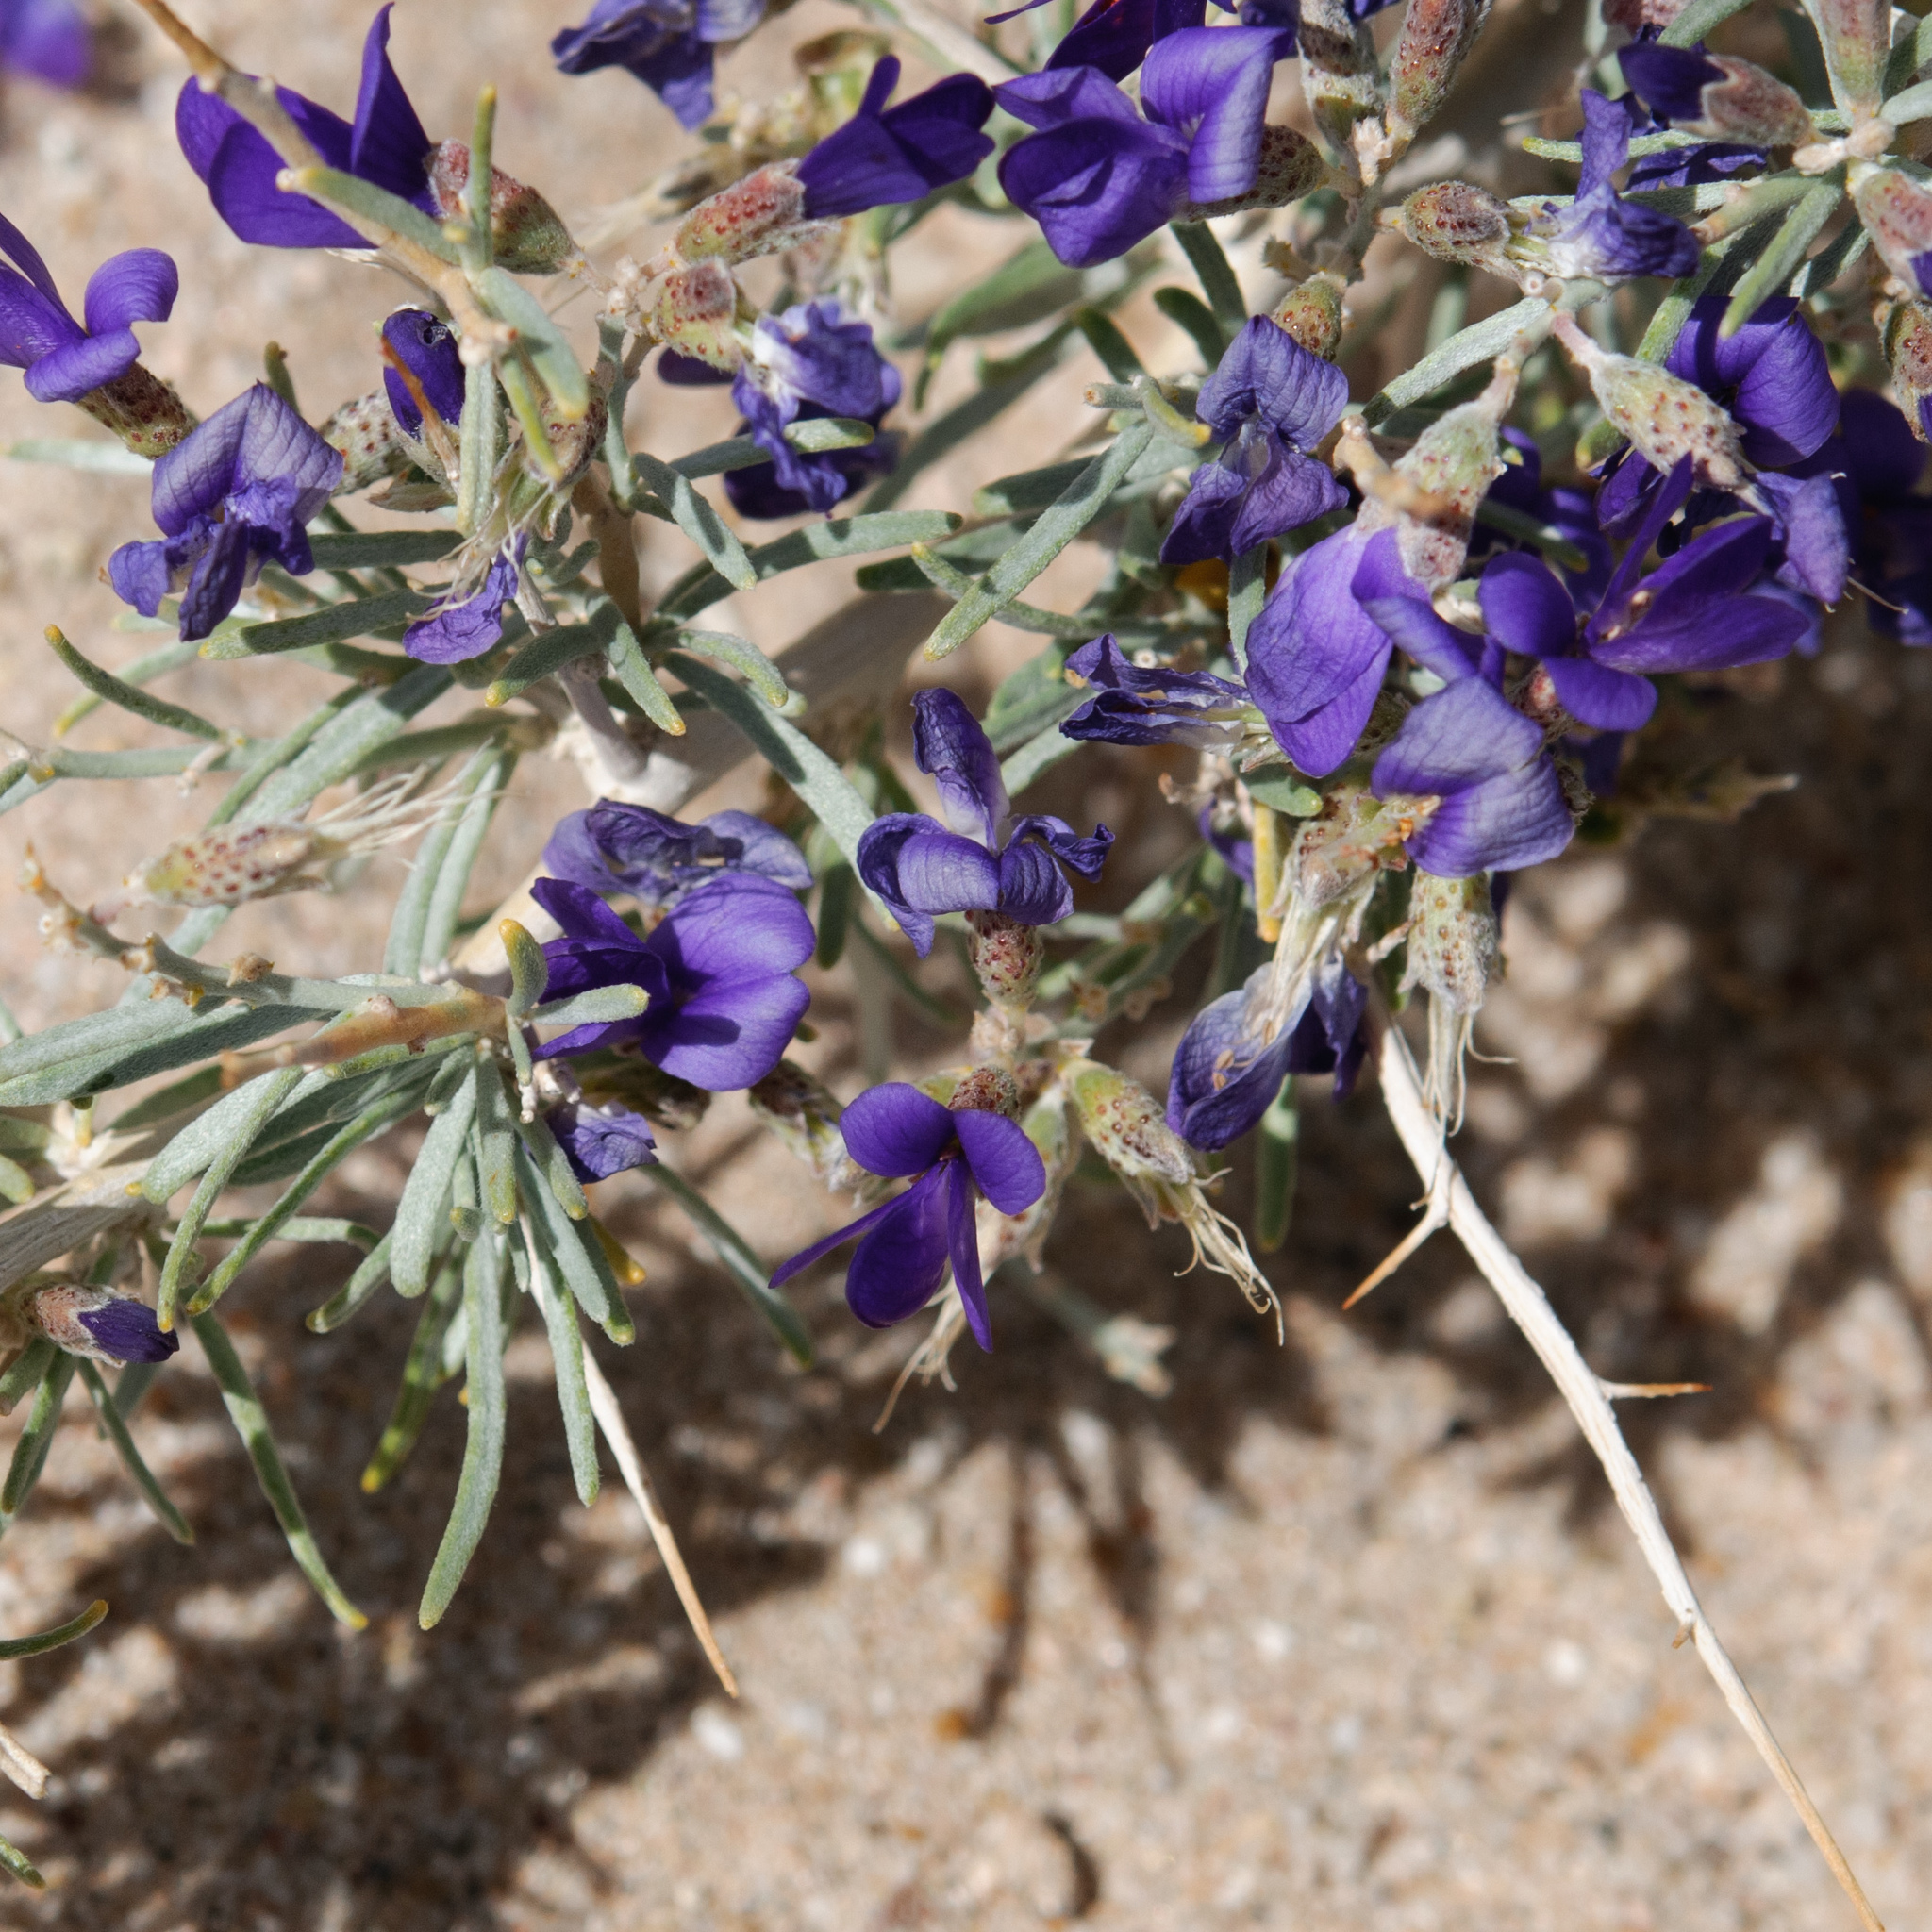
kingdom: Plantae
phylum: Tracheophyta
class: Magnoliopsida
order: Fabales
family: Fabaceae
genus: Psorothamnus
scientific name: Psorothamnus schottii
